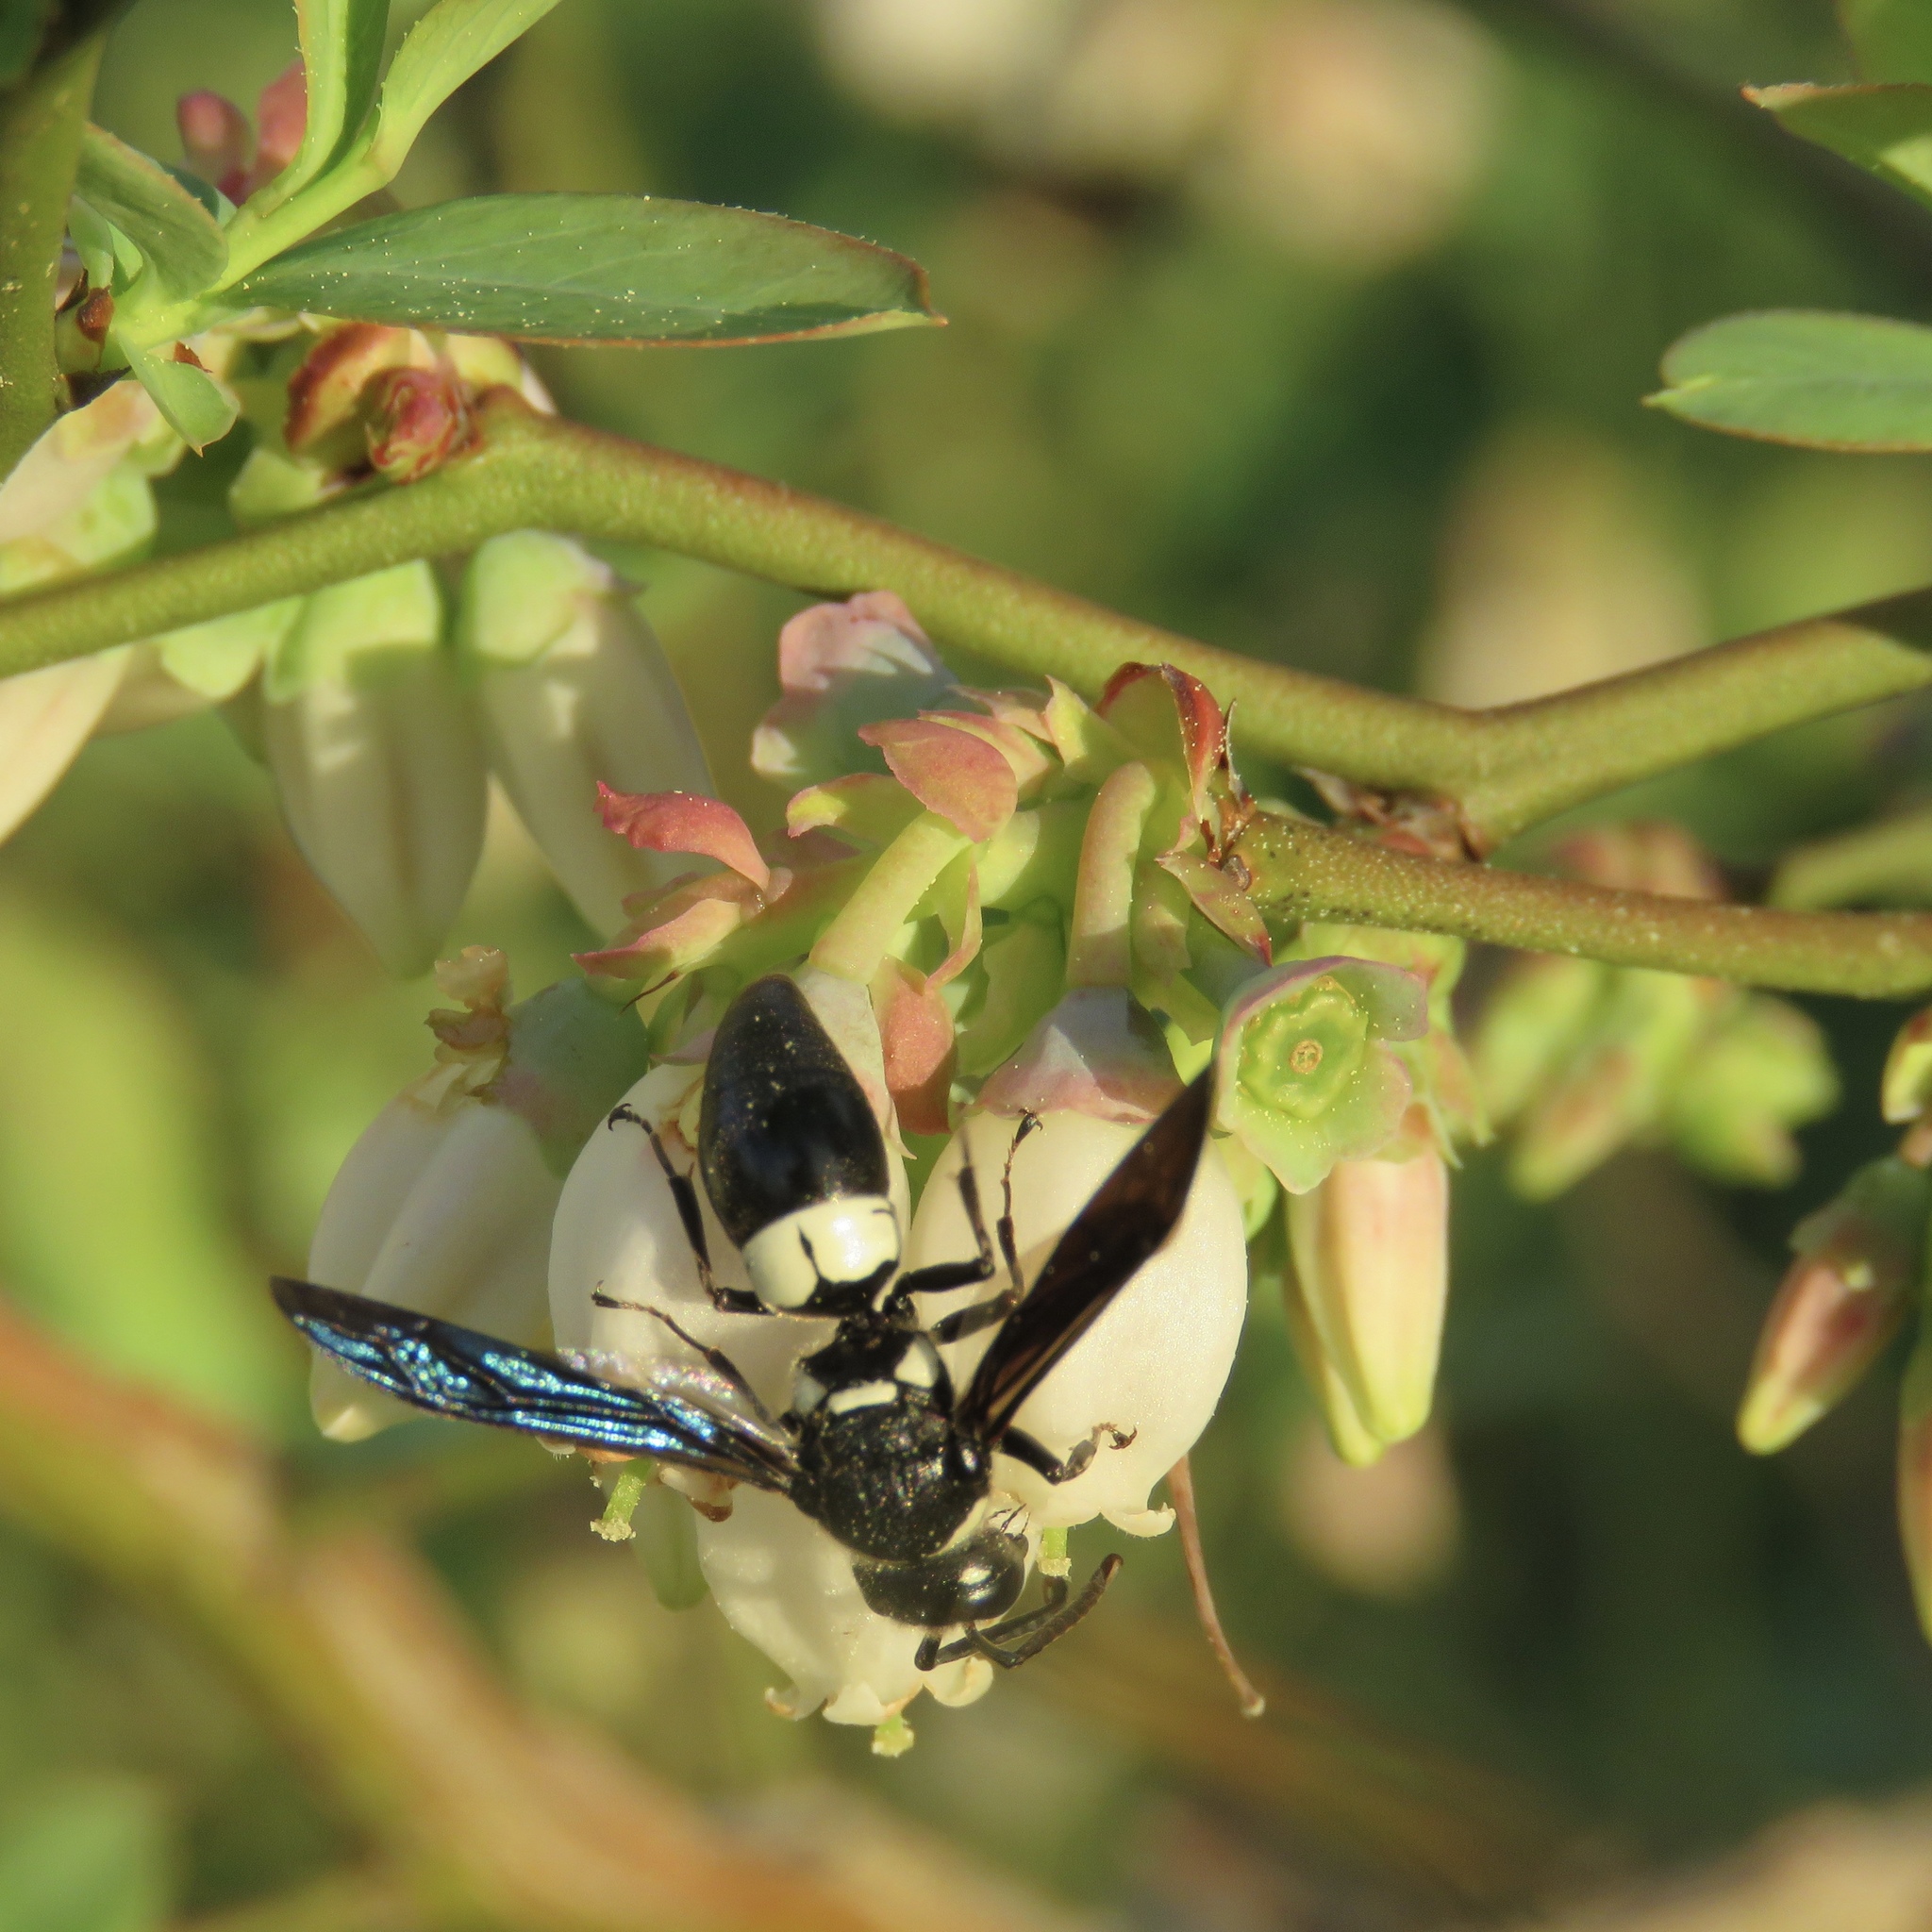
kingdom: Animalia
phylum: Arthropoda
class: Insecta
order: Hymenoptera
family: Eumenidae
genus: Euodynerus
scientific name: Euodynerus bidens
